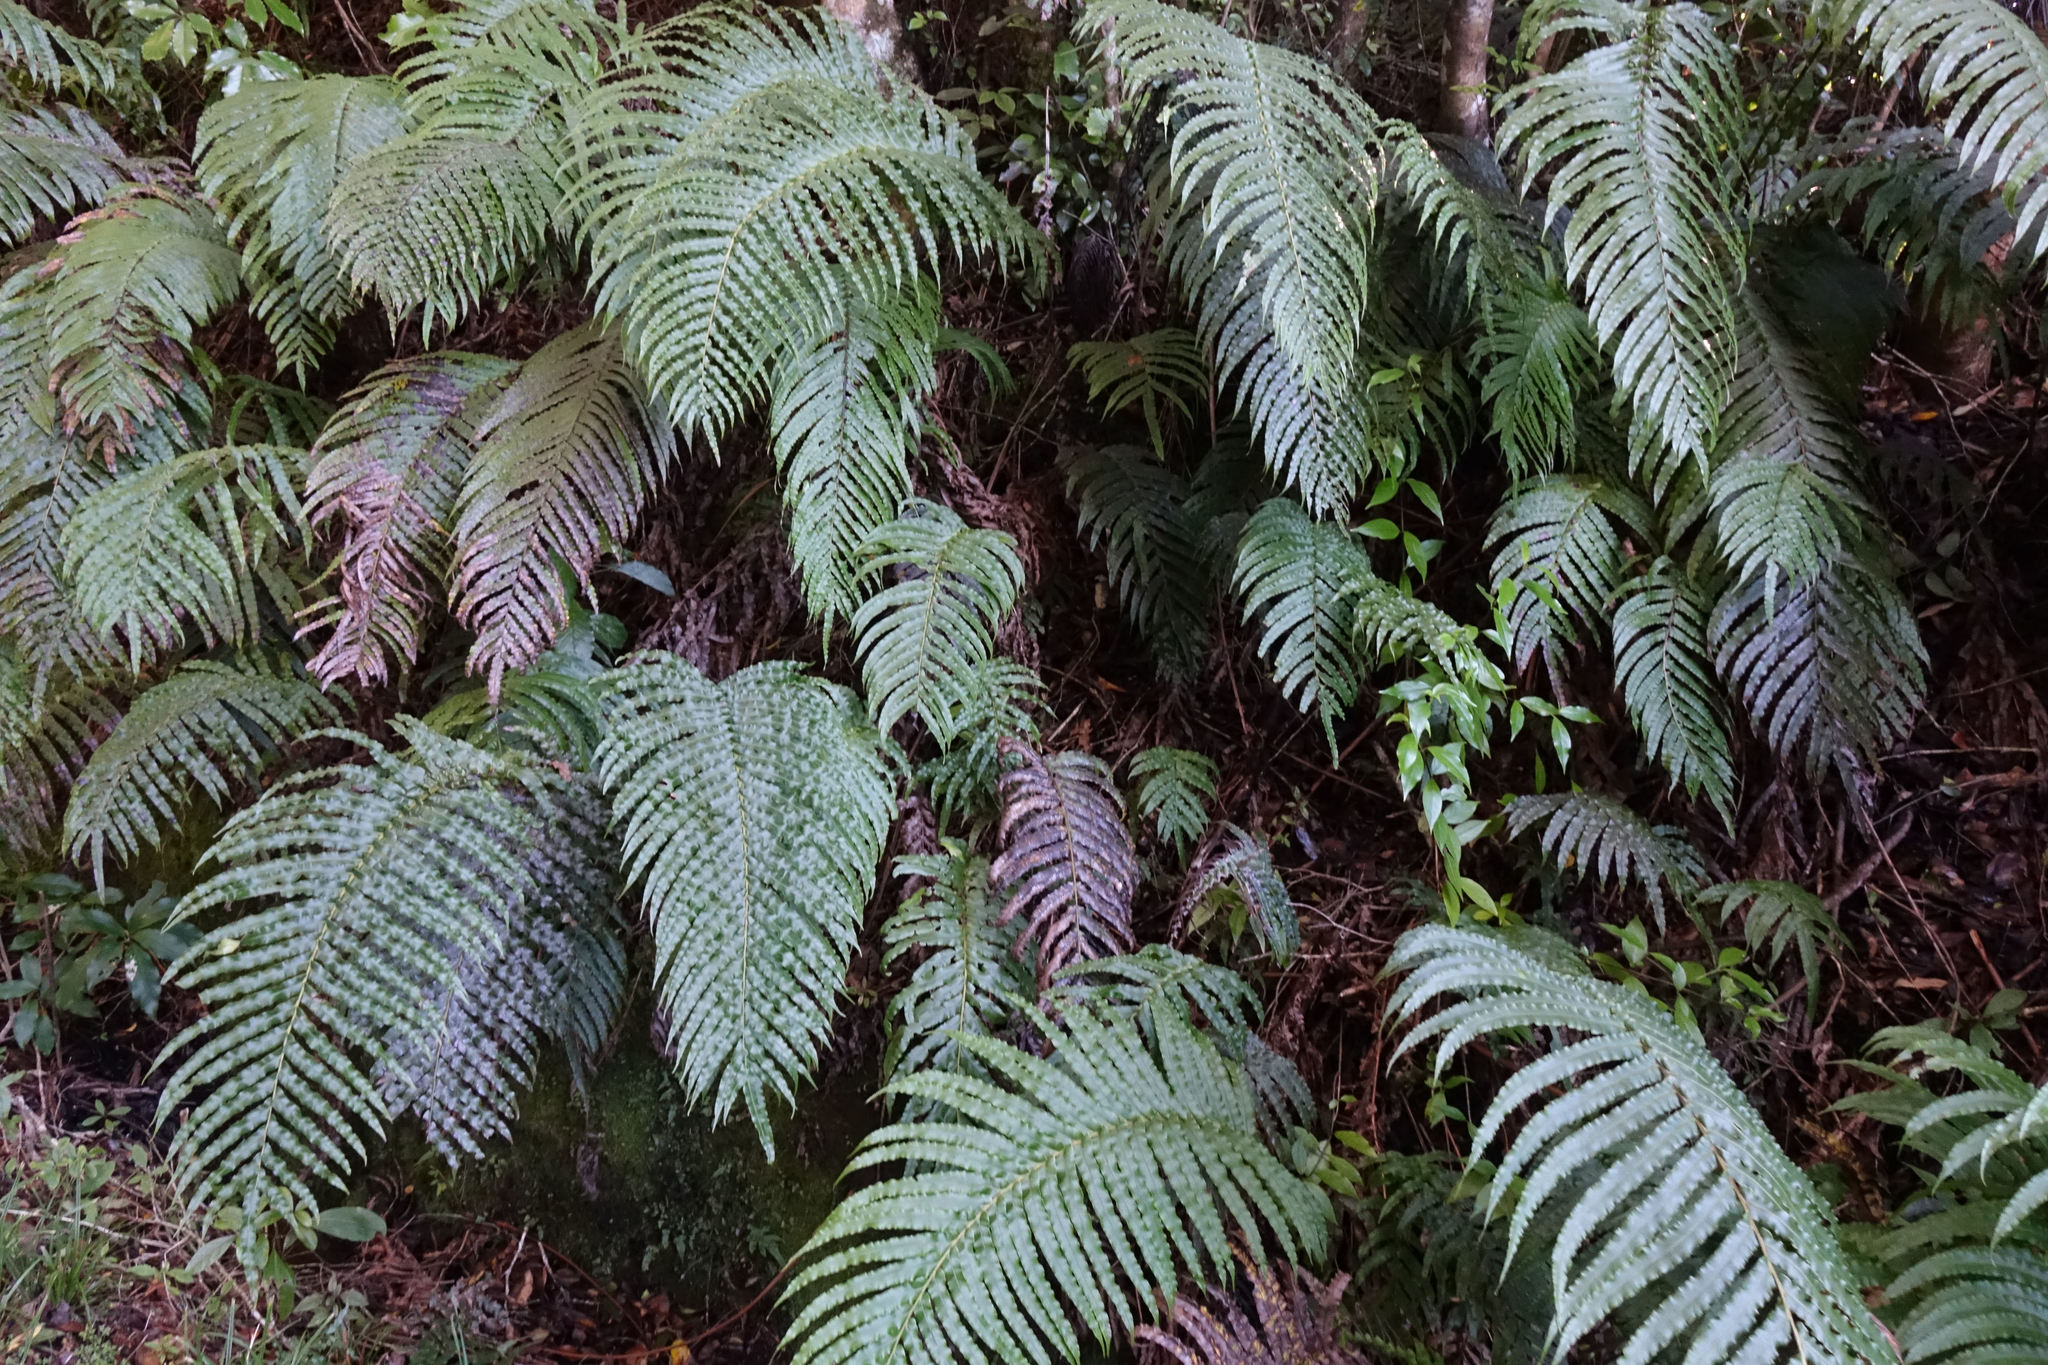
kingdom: Plantae
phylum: Tracheophyta
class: Polypodiopsida
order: Polypodiales
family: Blechnaceae
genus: Parablechnum
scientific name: Parablechnum novae-zelandiae
